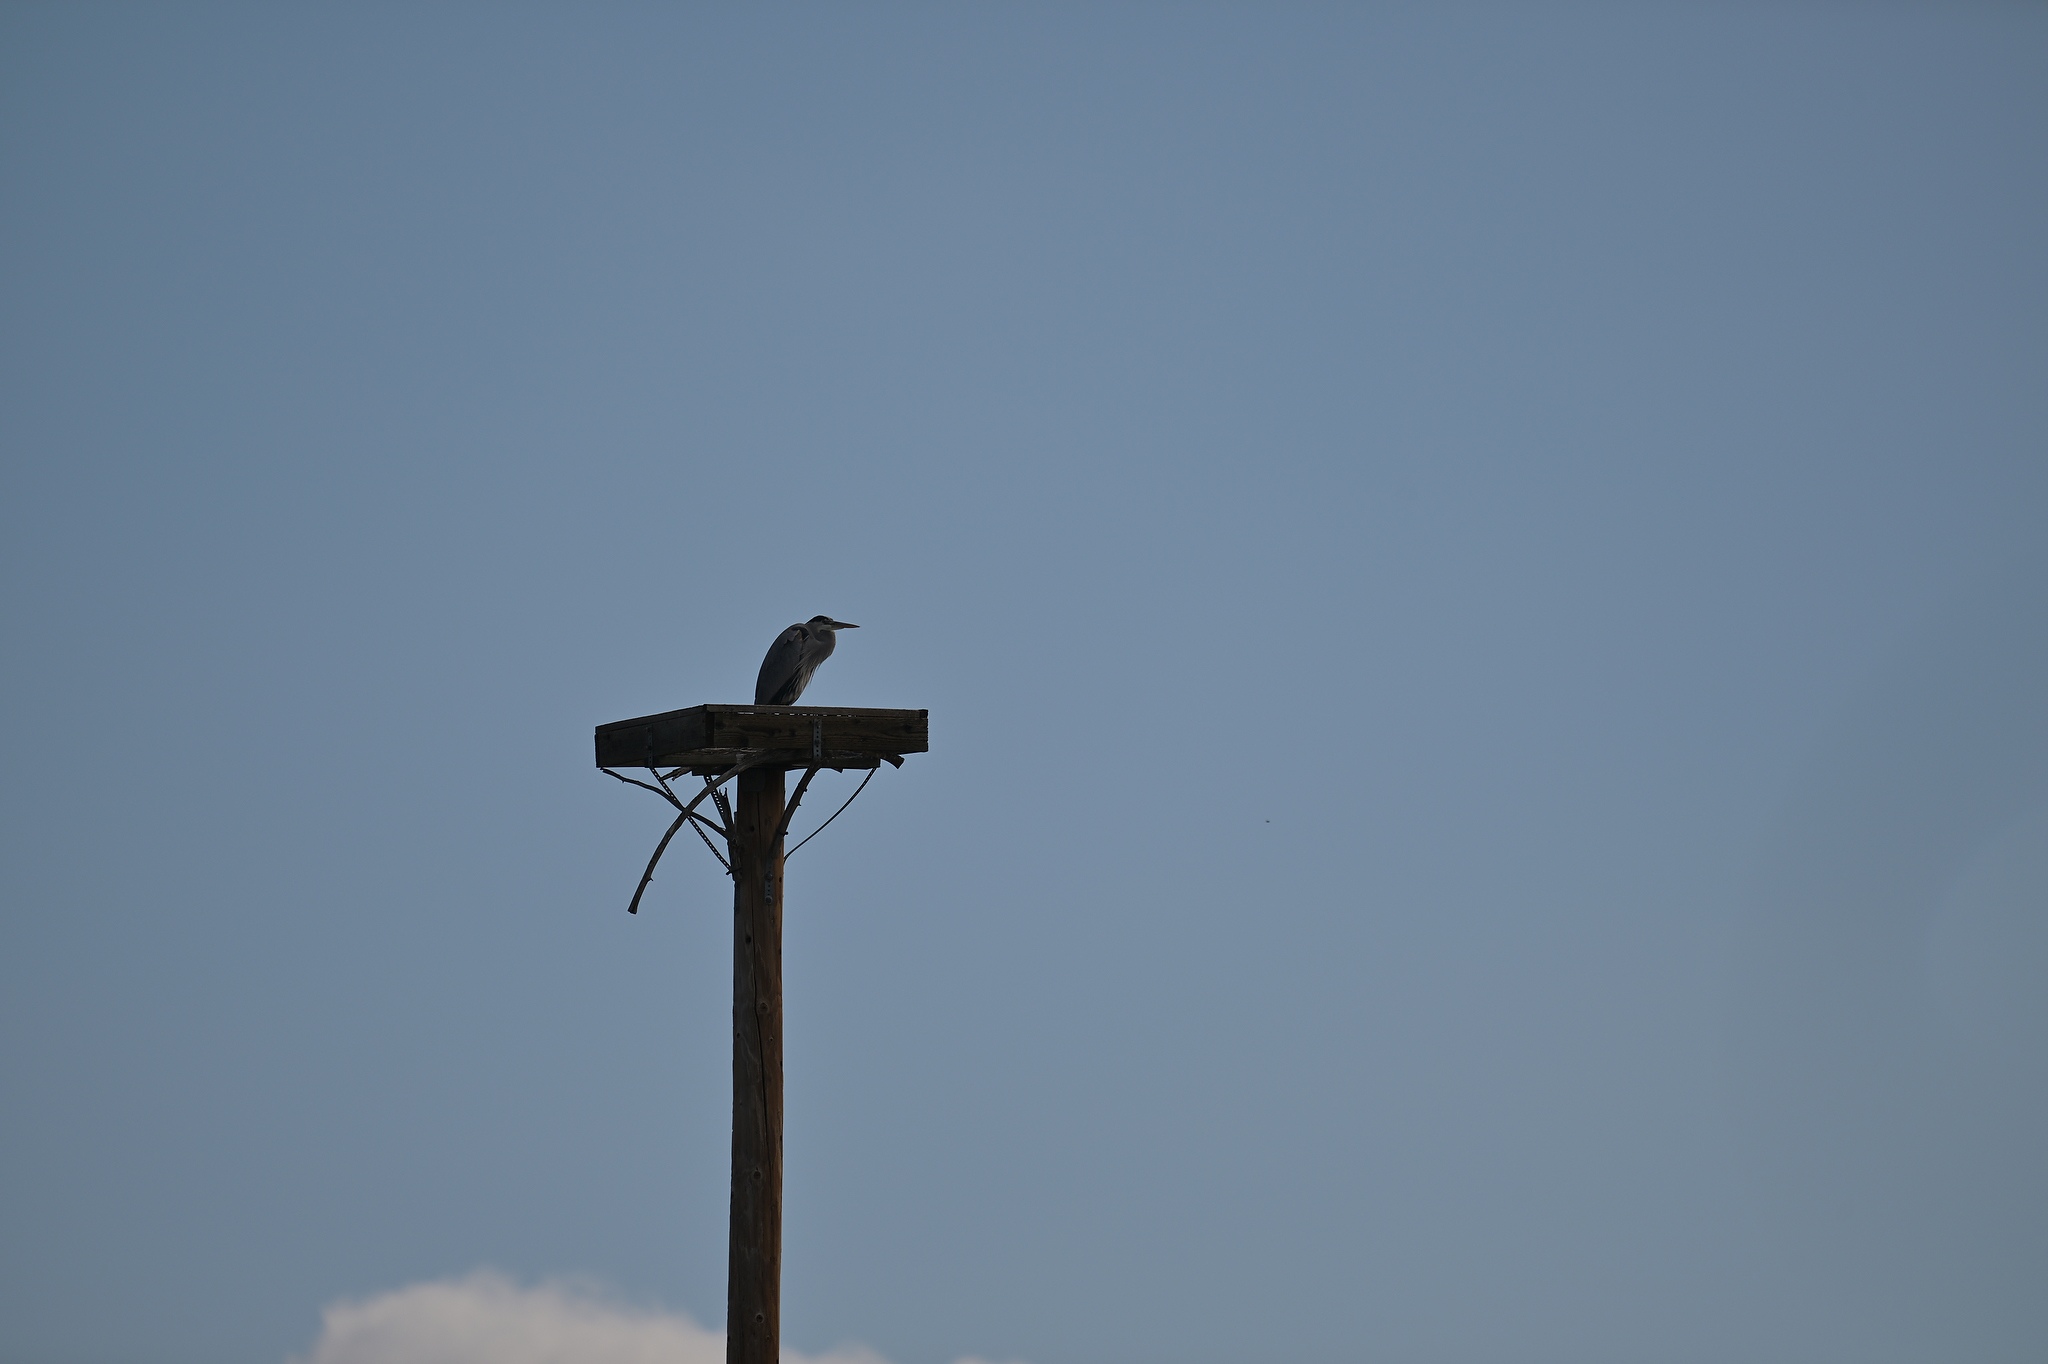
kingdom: Animalia
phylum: Chordata
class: Aves
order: Pelecaniformes
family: Ardeidae
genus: Ardea
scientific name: Ardea herodias
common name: Great blue heron
